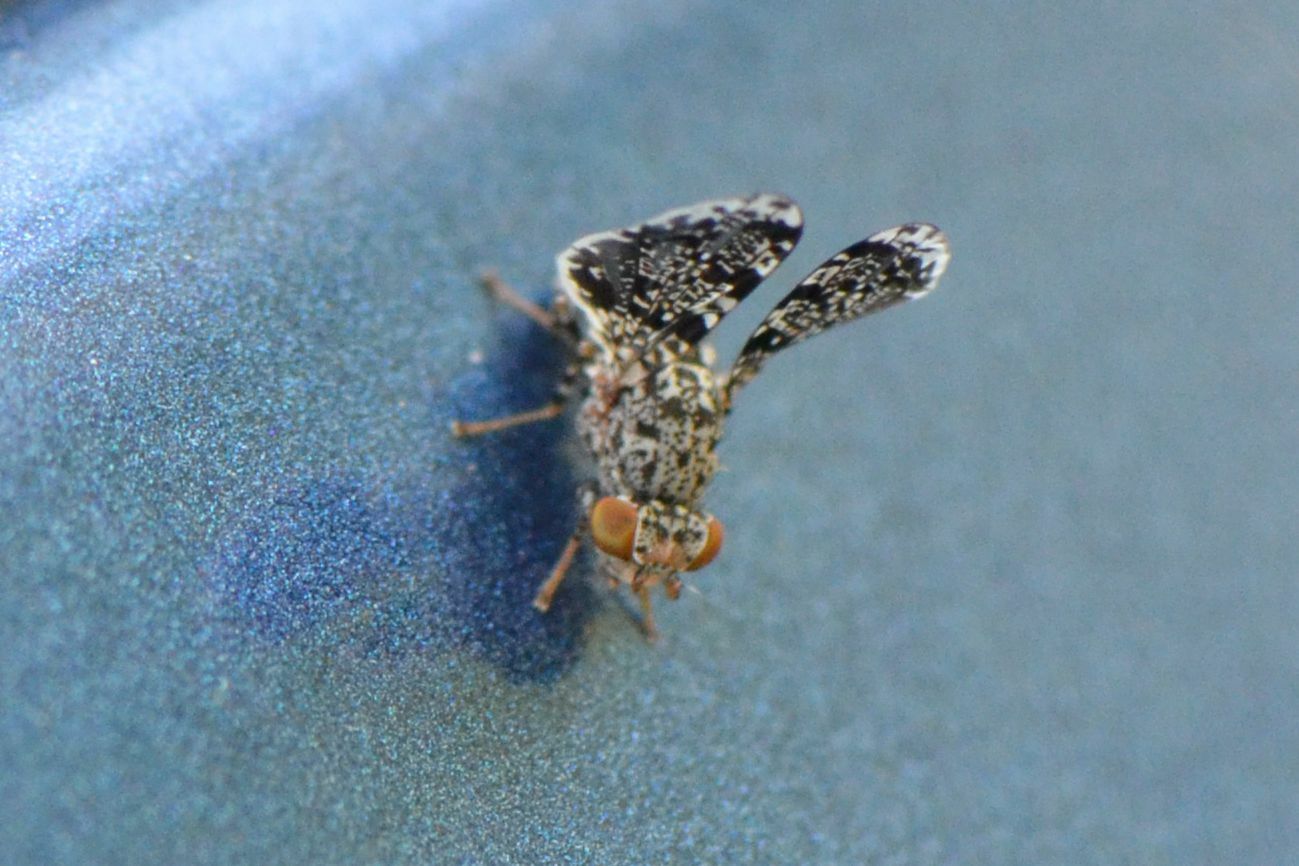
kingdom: Animalia
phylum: Arthropoda
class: Insecta
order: Diptera
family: Ulidiidae
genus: Callopistromyia
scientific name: Callopistromyia annulipes
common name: Peacock fly
